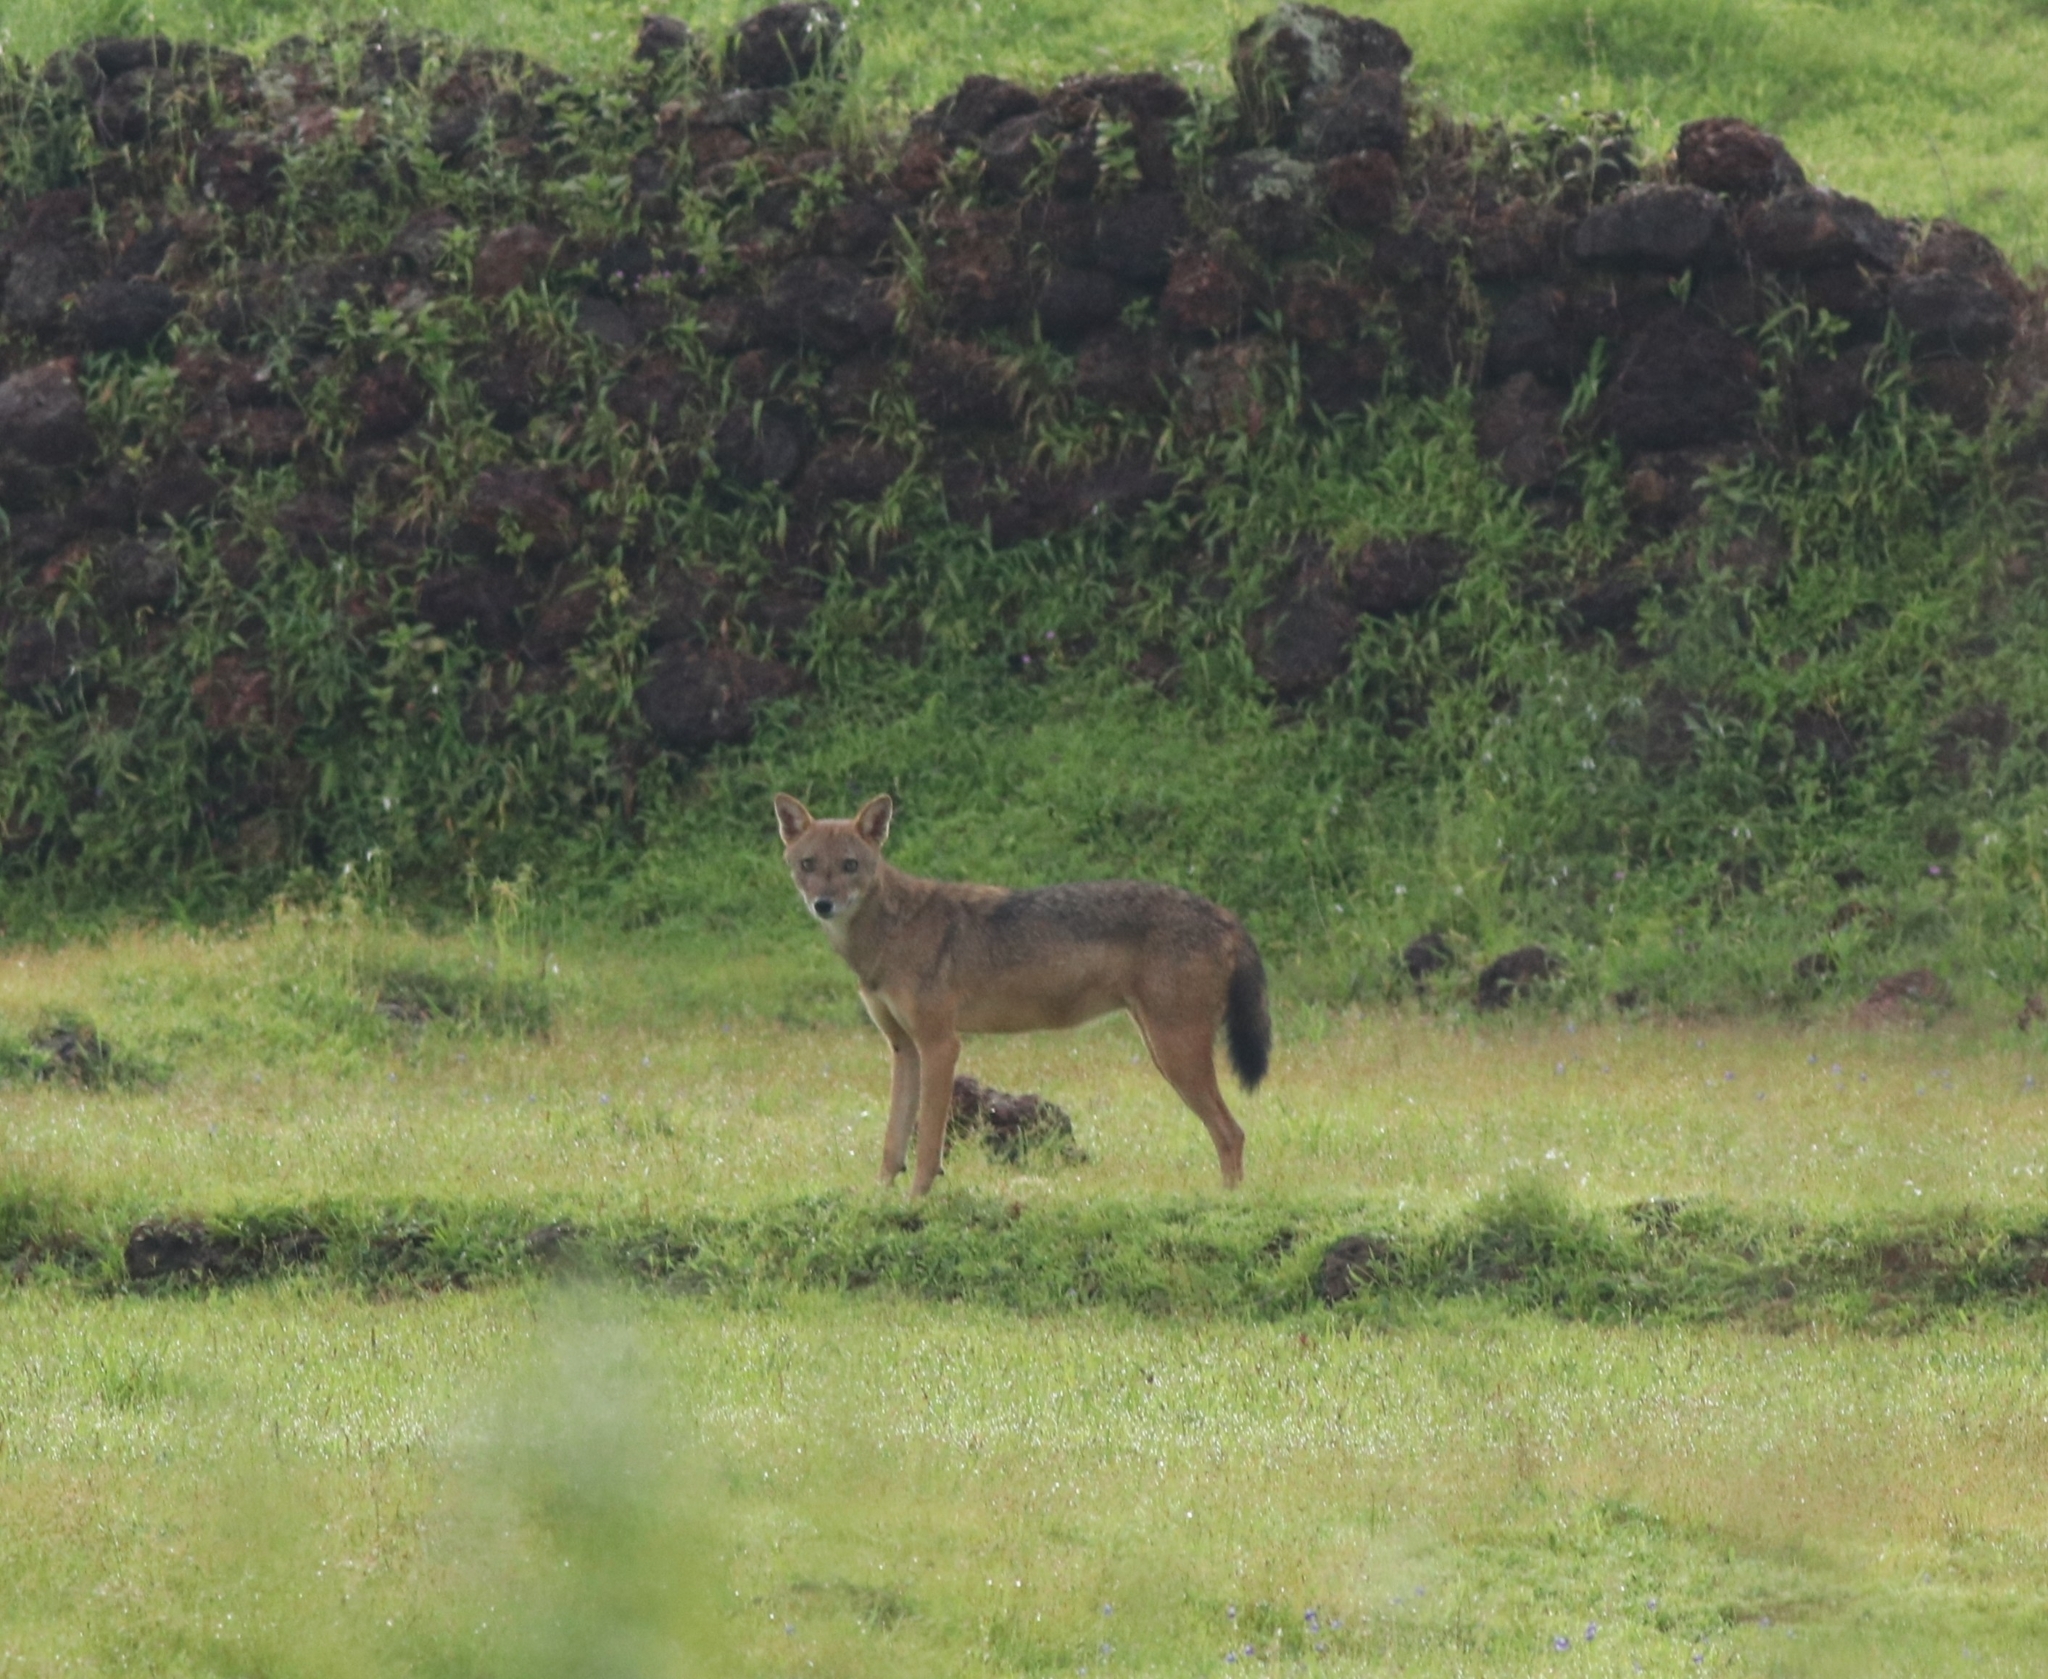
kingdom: Animalia
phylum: Chordata
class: Mammalia
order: Carnivora
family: Canidae
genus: Canis
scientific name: Canis aureus
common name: Golden jackal
